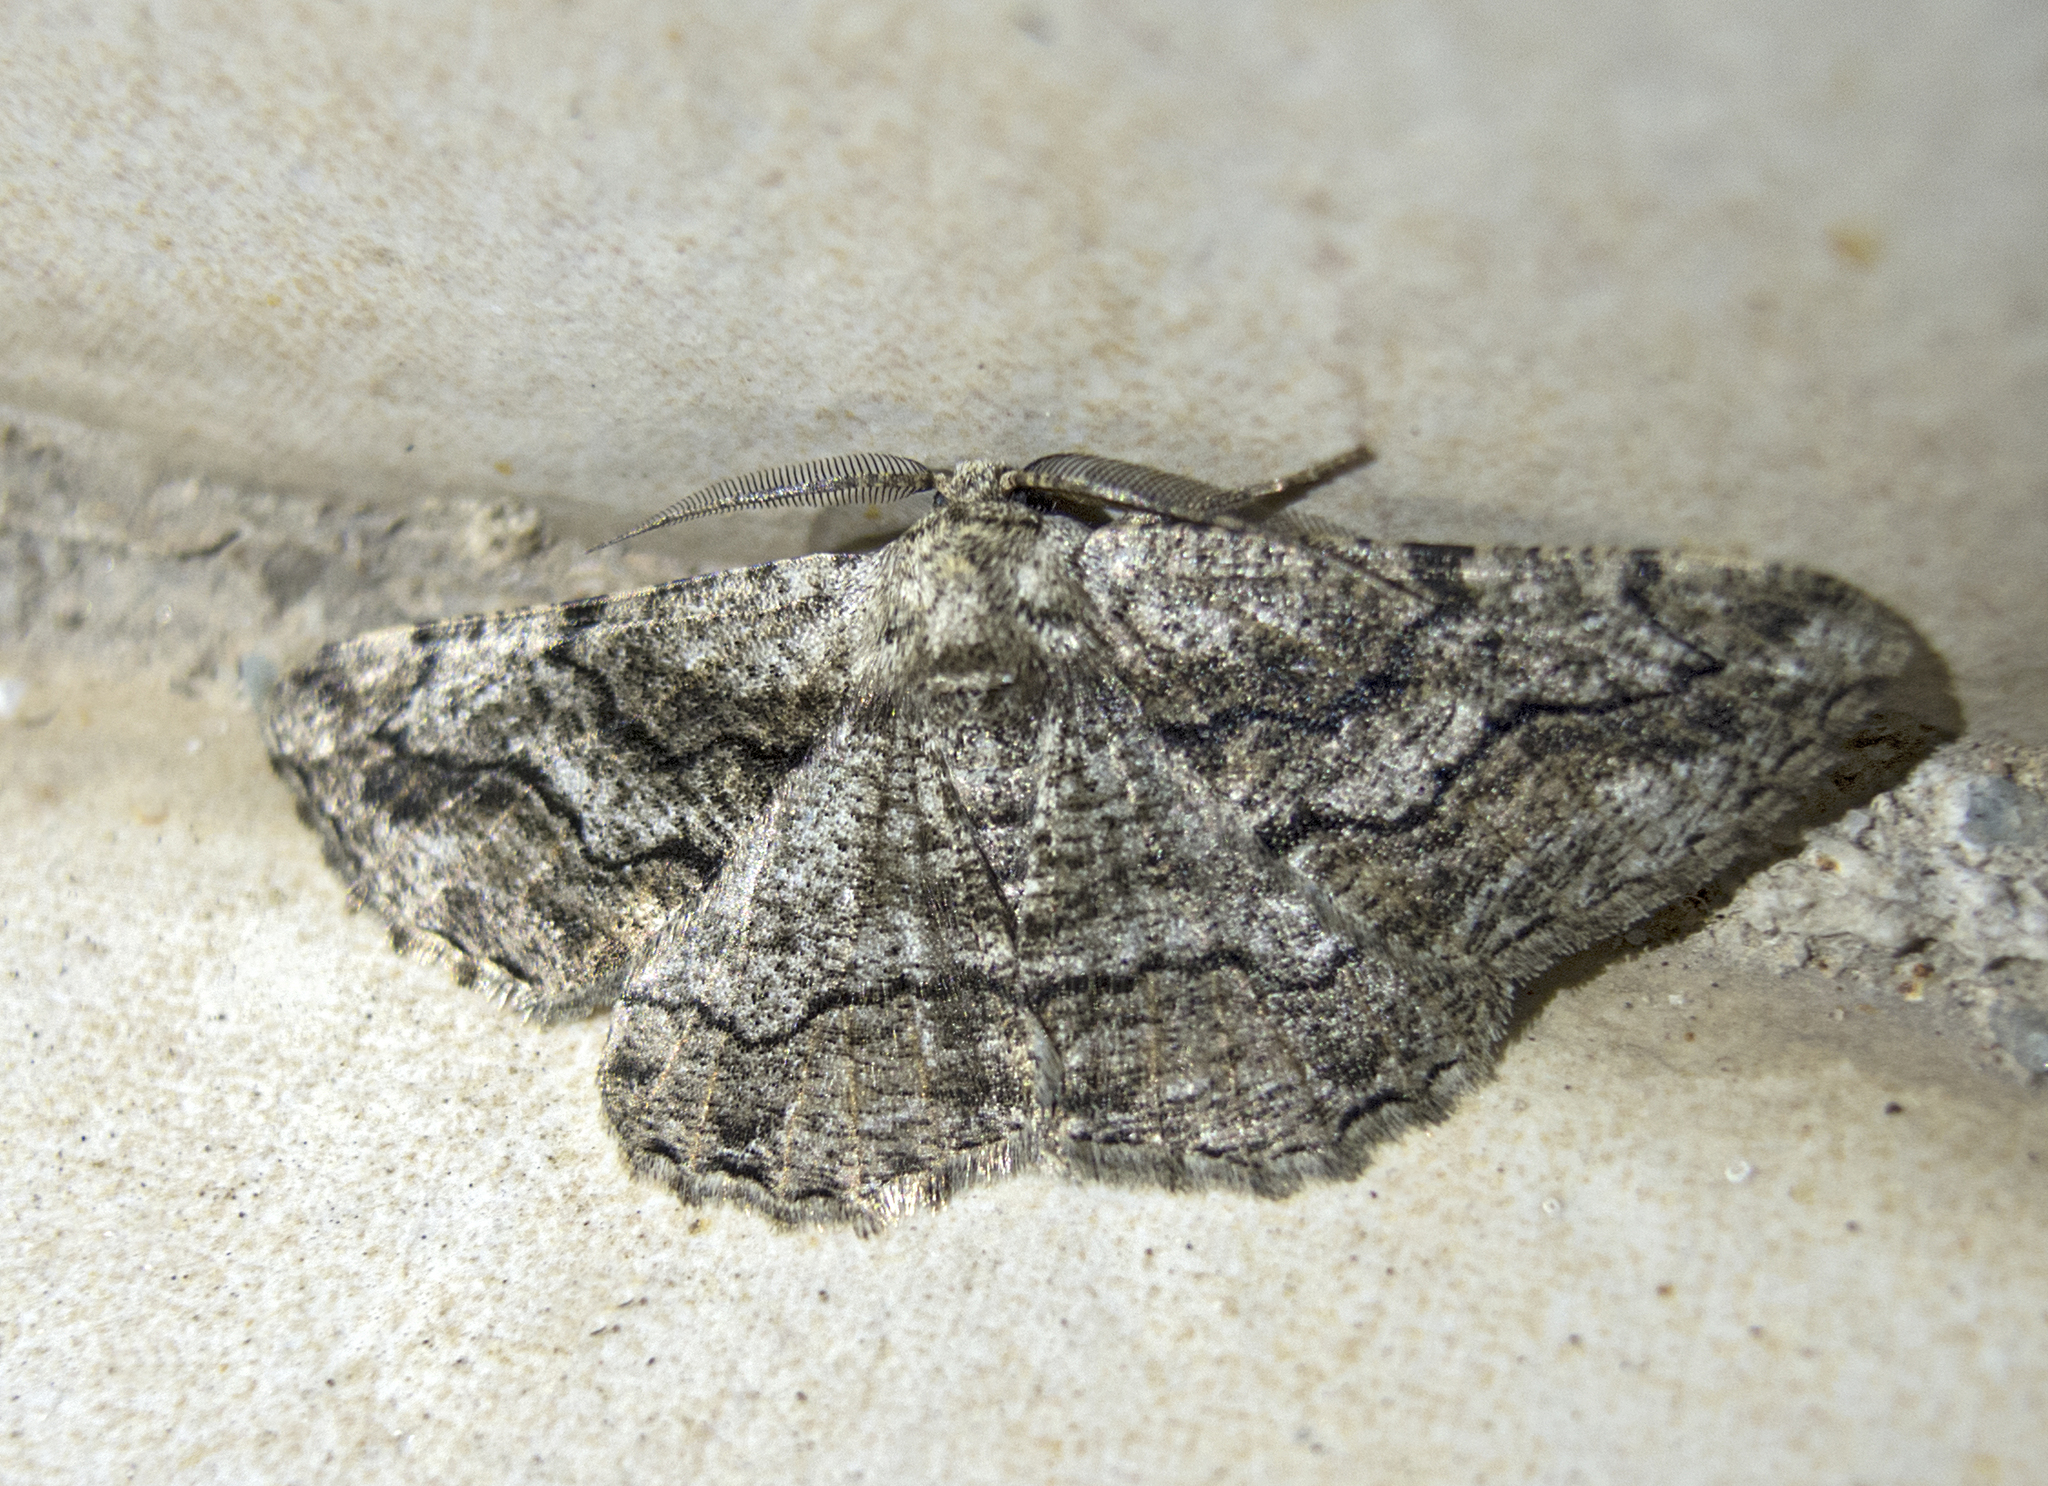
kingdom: Animalia
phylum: Arthropoda
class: Insecta
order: Lepidoptera
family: Geometridae
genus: Synopsia
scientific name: Synopsia sociaria
